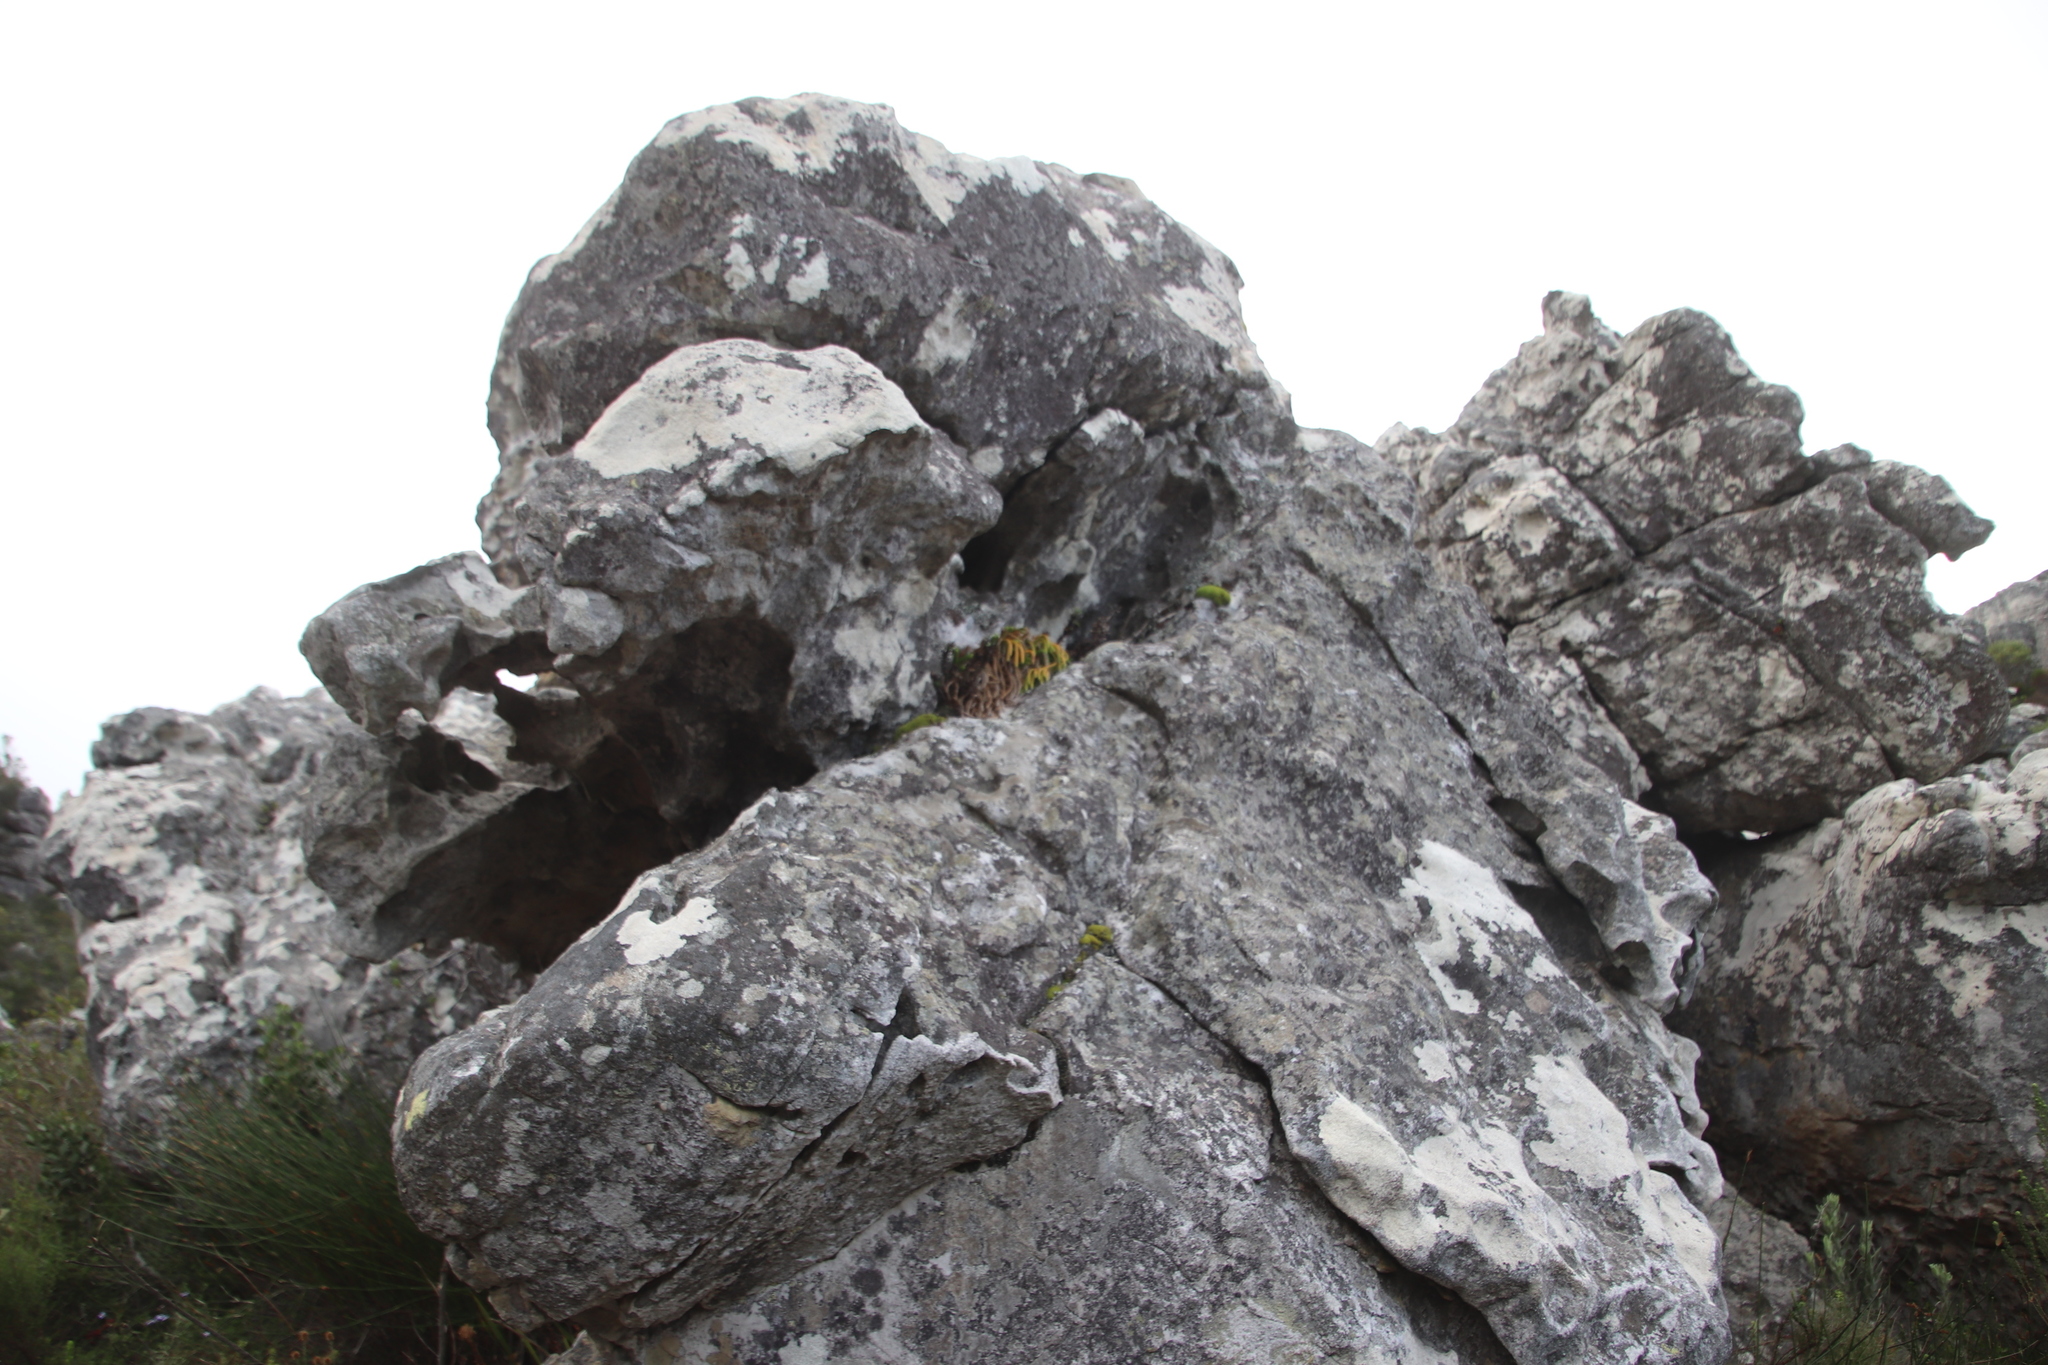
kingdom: Plantae
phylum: Tracheophyta
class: Lycopodiopsida
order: Lycopodiales
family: Lycopodiaceae
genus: Phlegmariurus
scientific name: Phlegmariurus gnidioides
